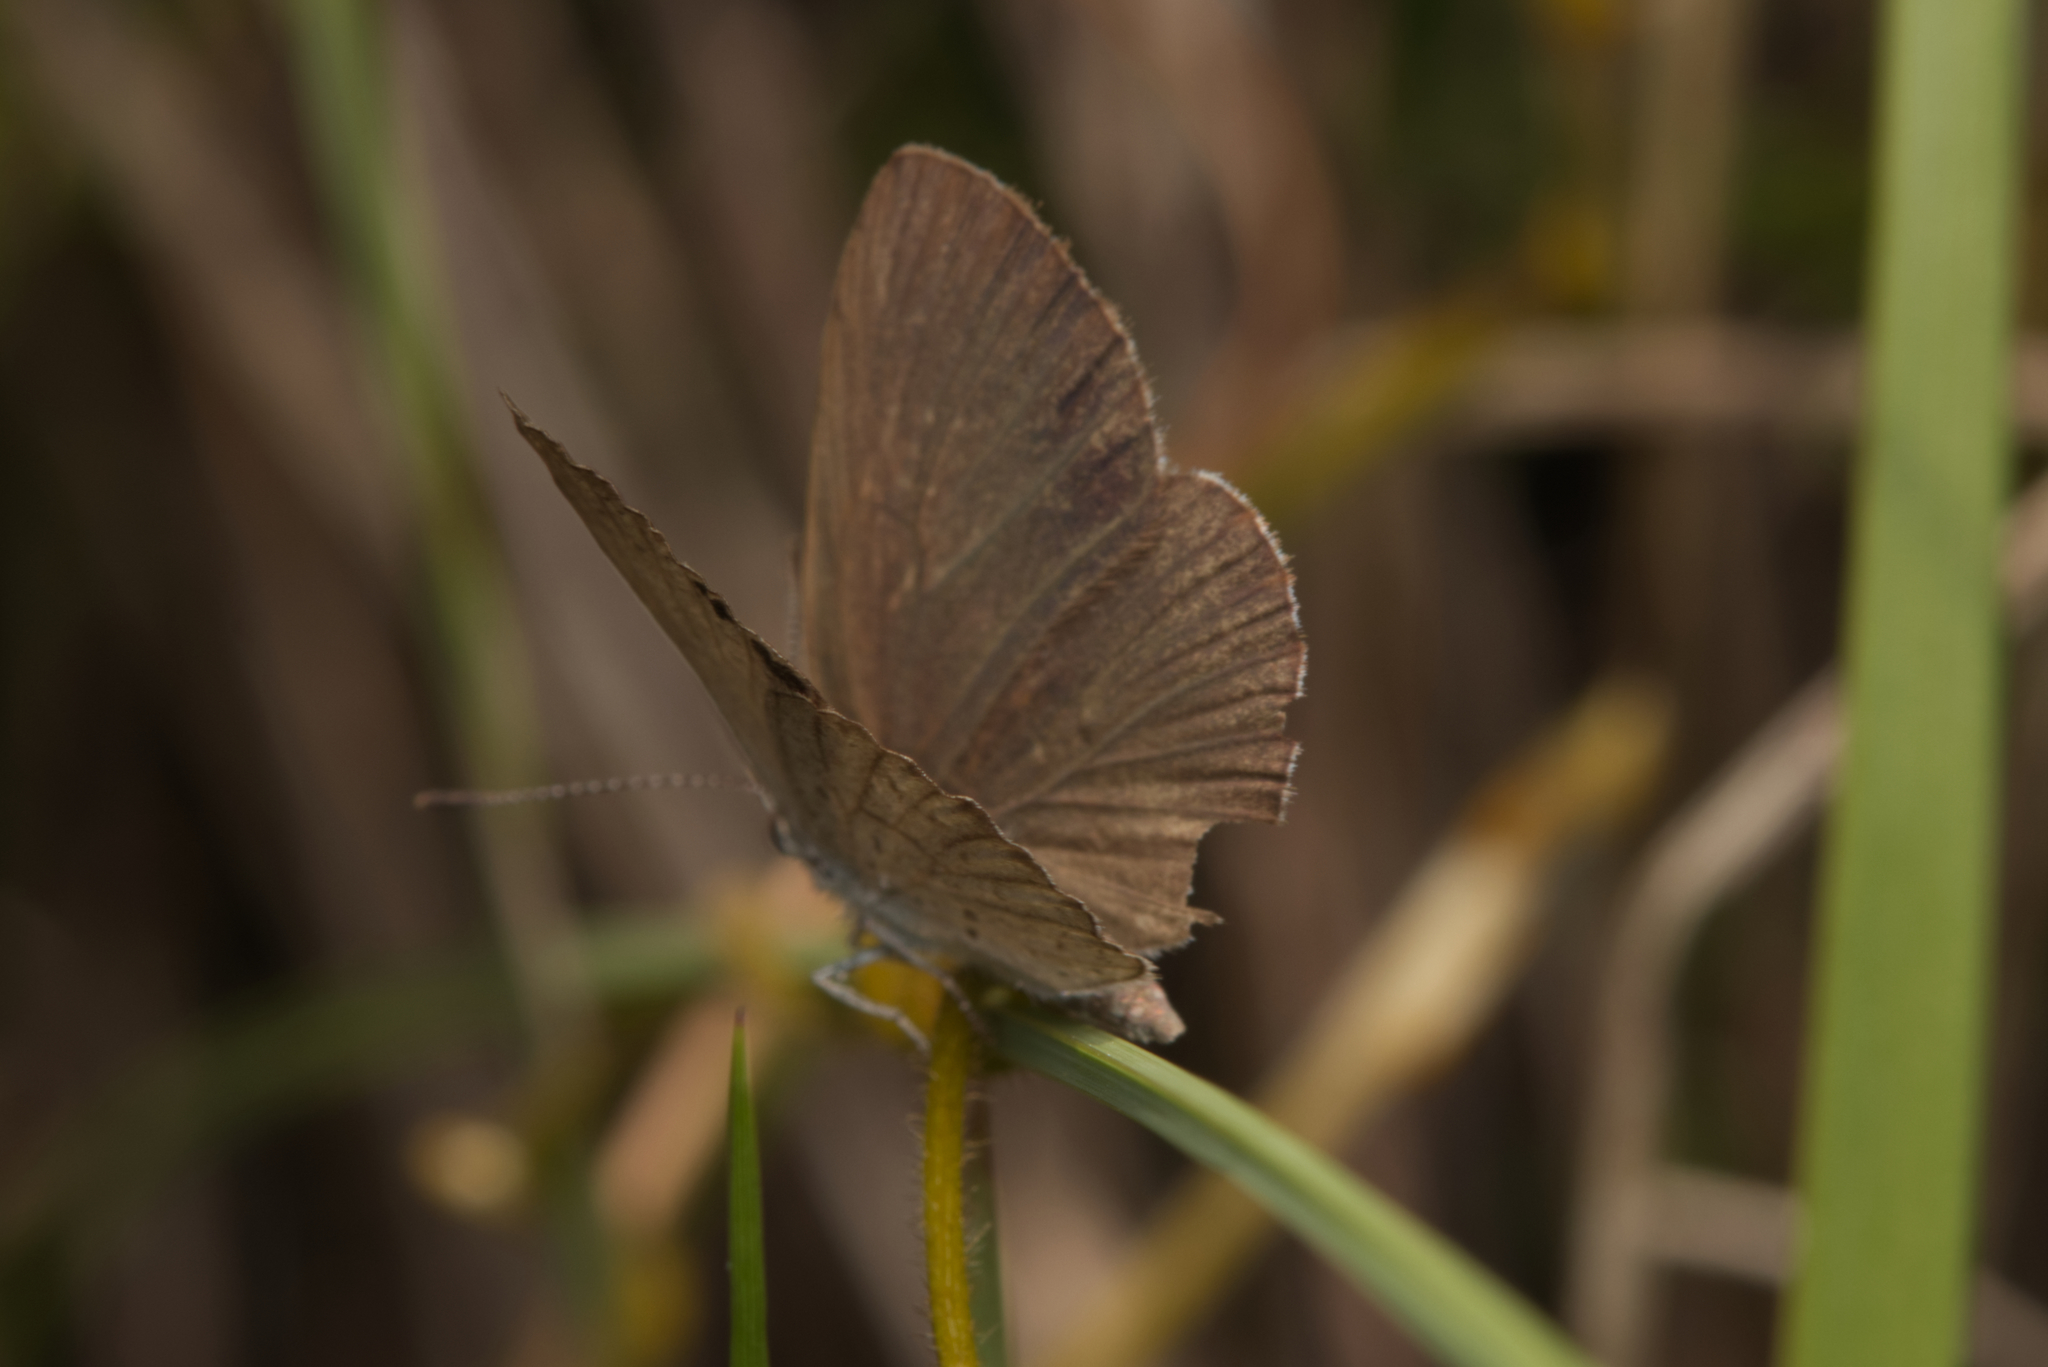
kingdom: Animalia
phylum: Arthropoda
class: Insecta
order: Lepidoptera
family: Lycaenidae
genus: Candalides
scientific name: Candalides
